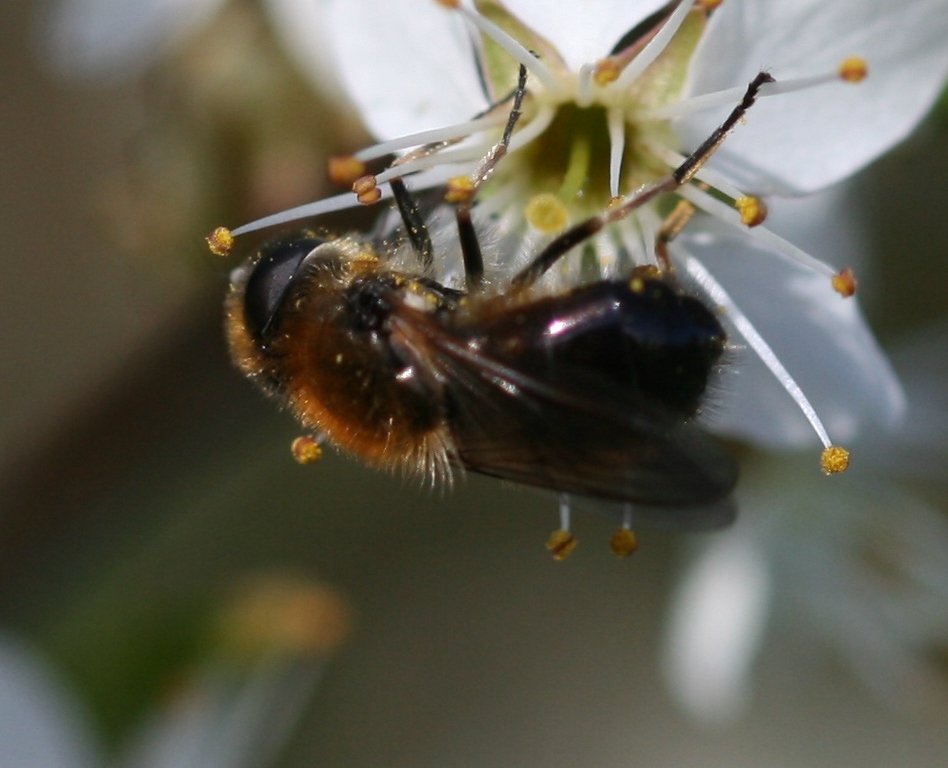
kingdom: Animalia
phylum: Arthropoda
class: Insecta
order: Diptera
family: Syrphidae
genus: Cheilosia
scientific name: Cheilosia corydon
